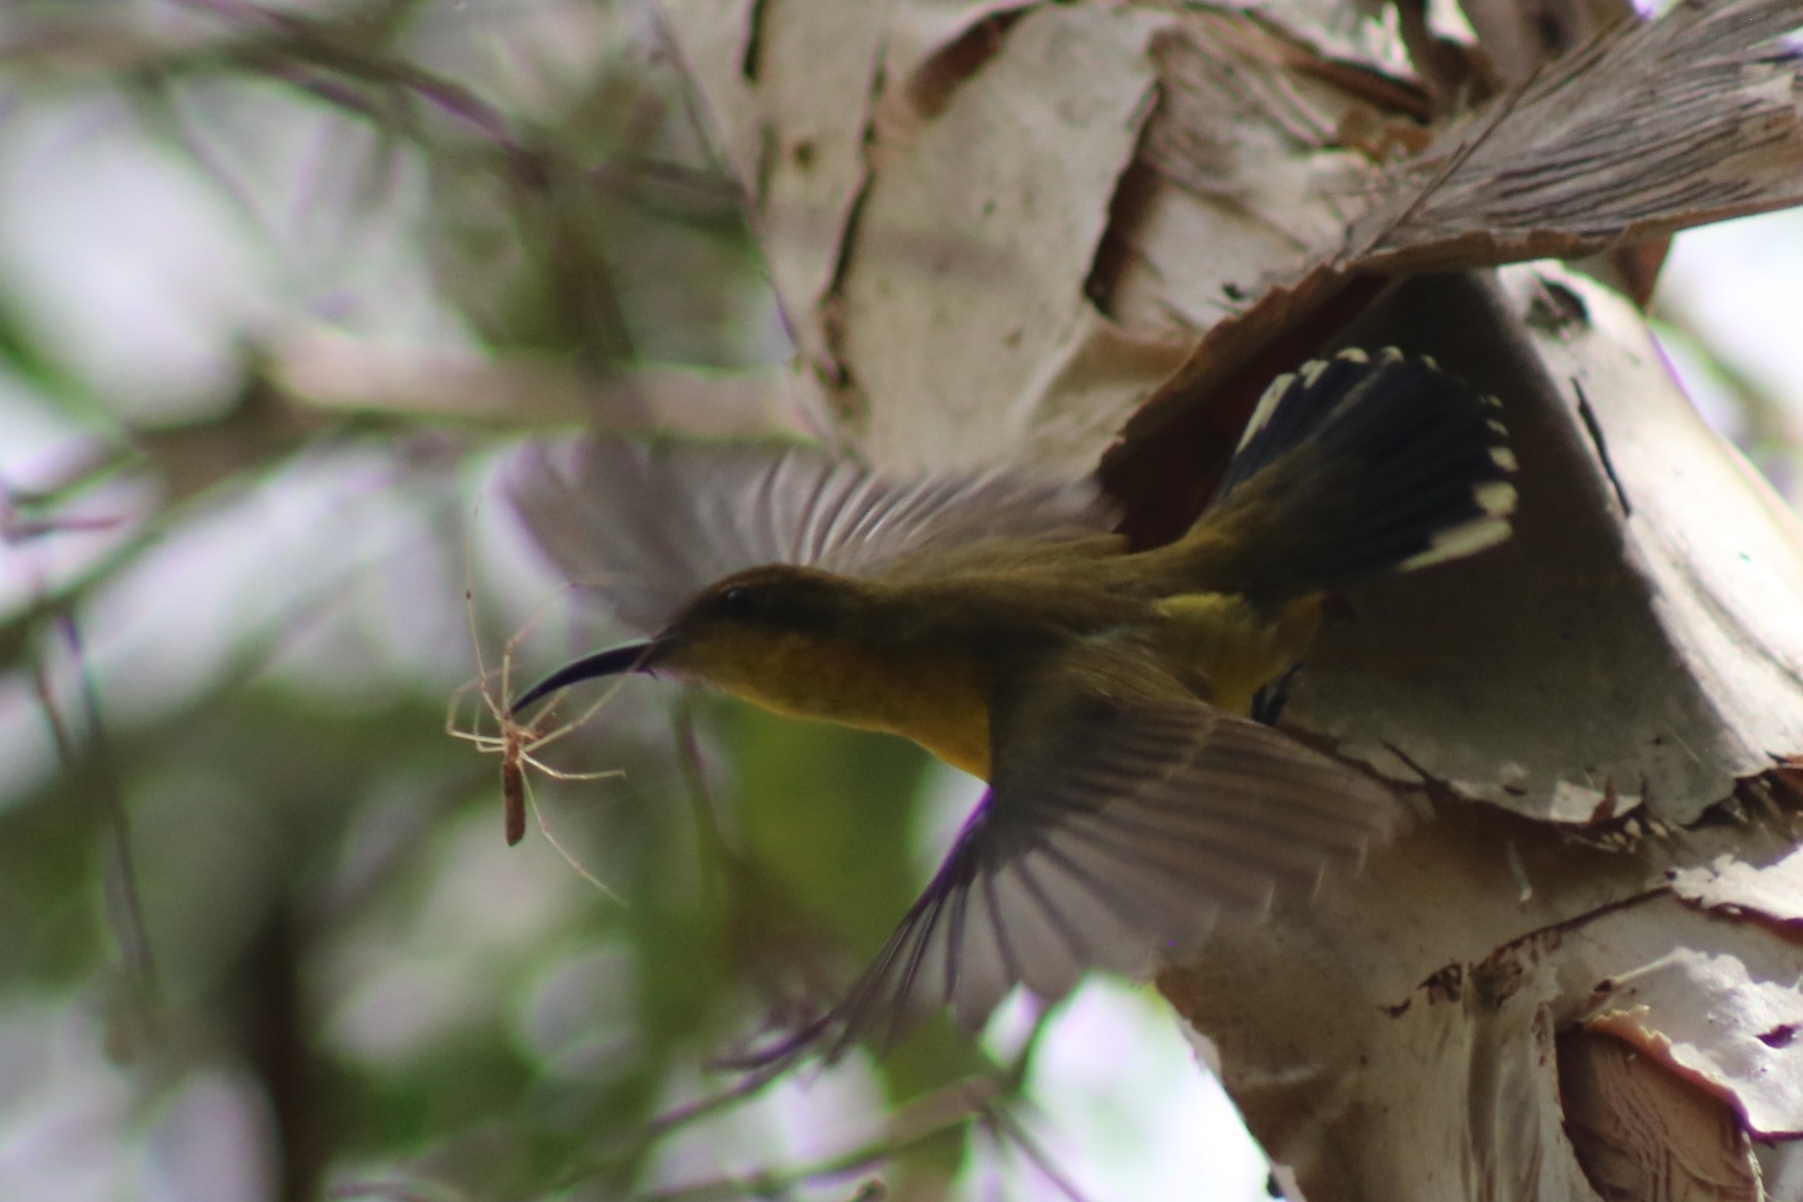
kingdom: Animalia
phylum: Chordata
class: Aves
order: Passeriformes
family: Nectariniidae
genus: Cinnyris
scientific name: Cinnyris
